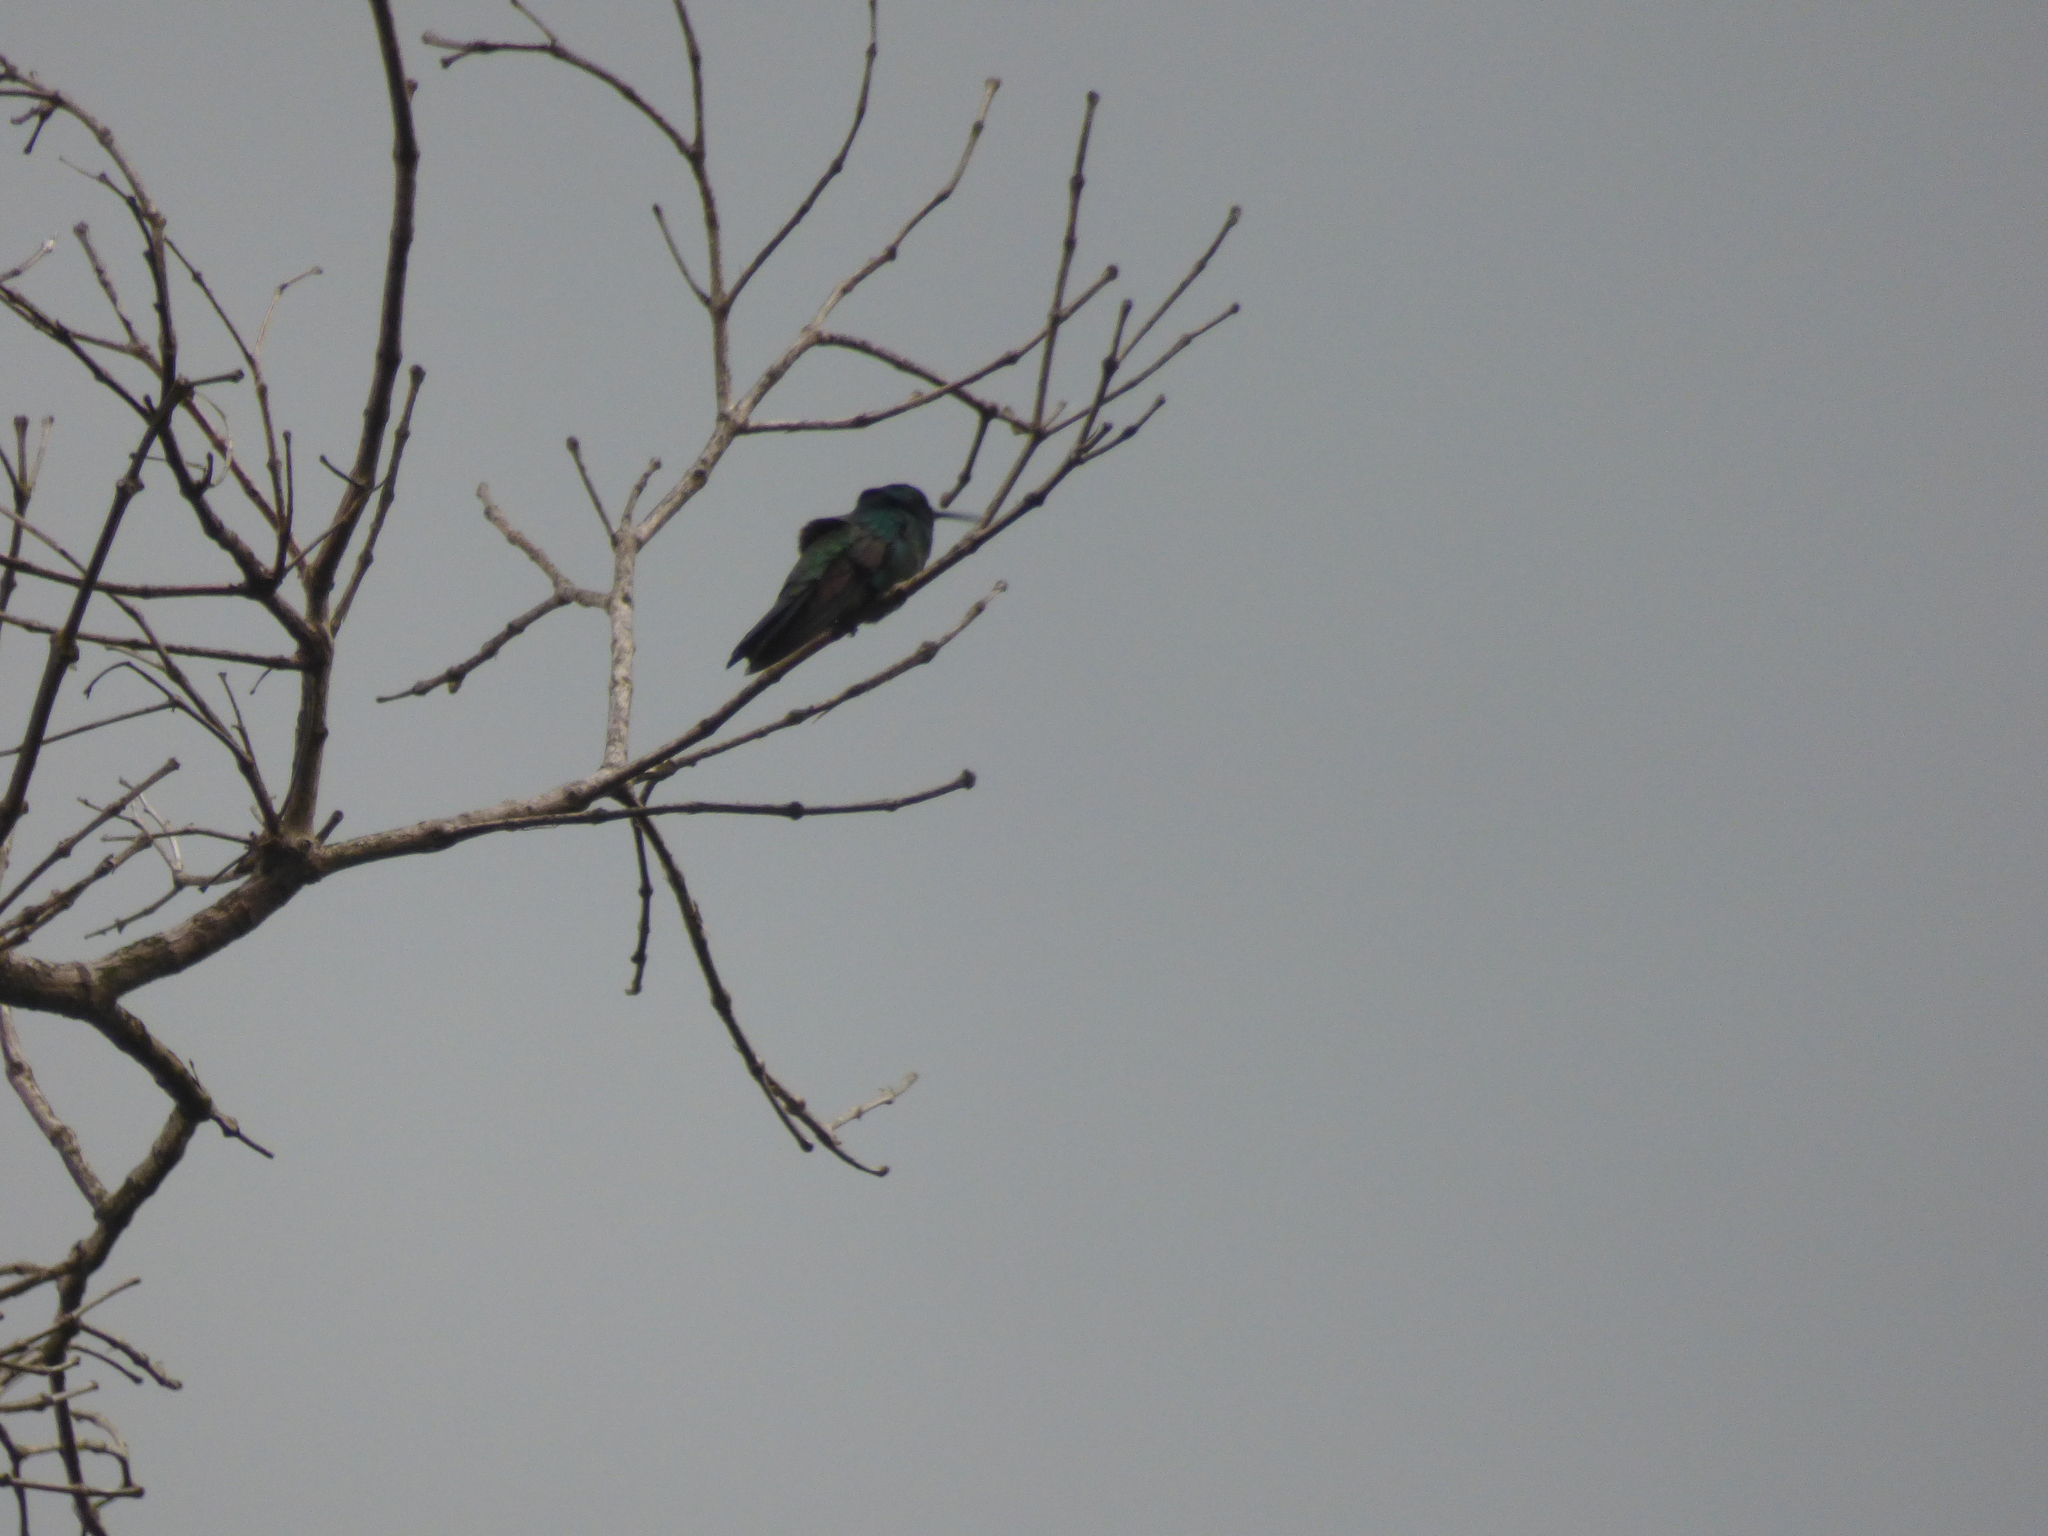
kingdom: Animalia
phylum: Chordata
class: Aves
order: Apodiformes
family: Trochilidae
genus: Colibri
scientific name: Colibri coruscans
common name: Sparkling violetear
